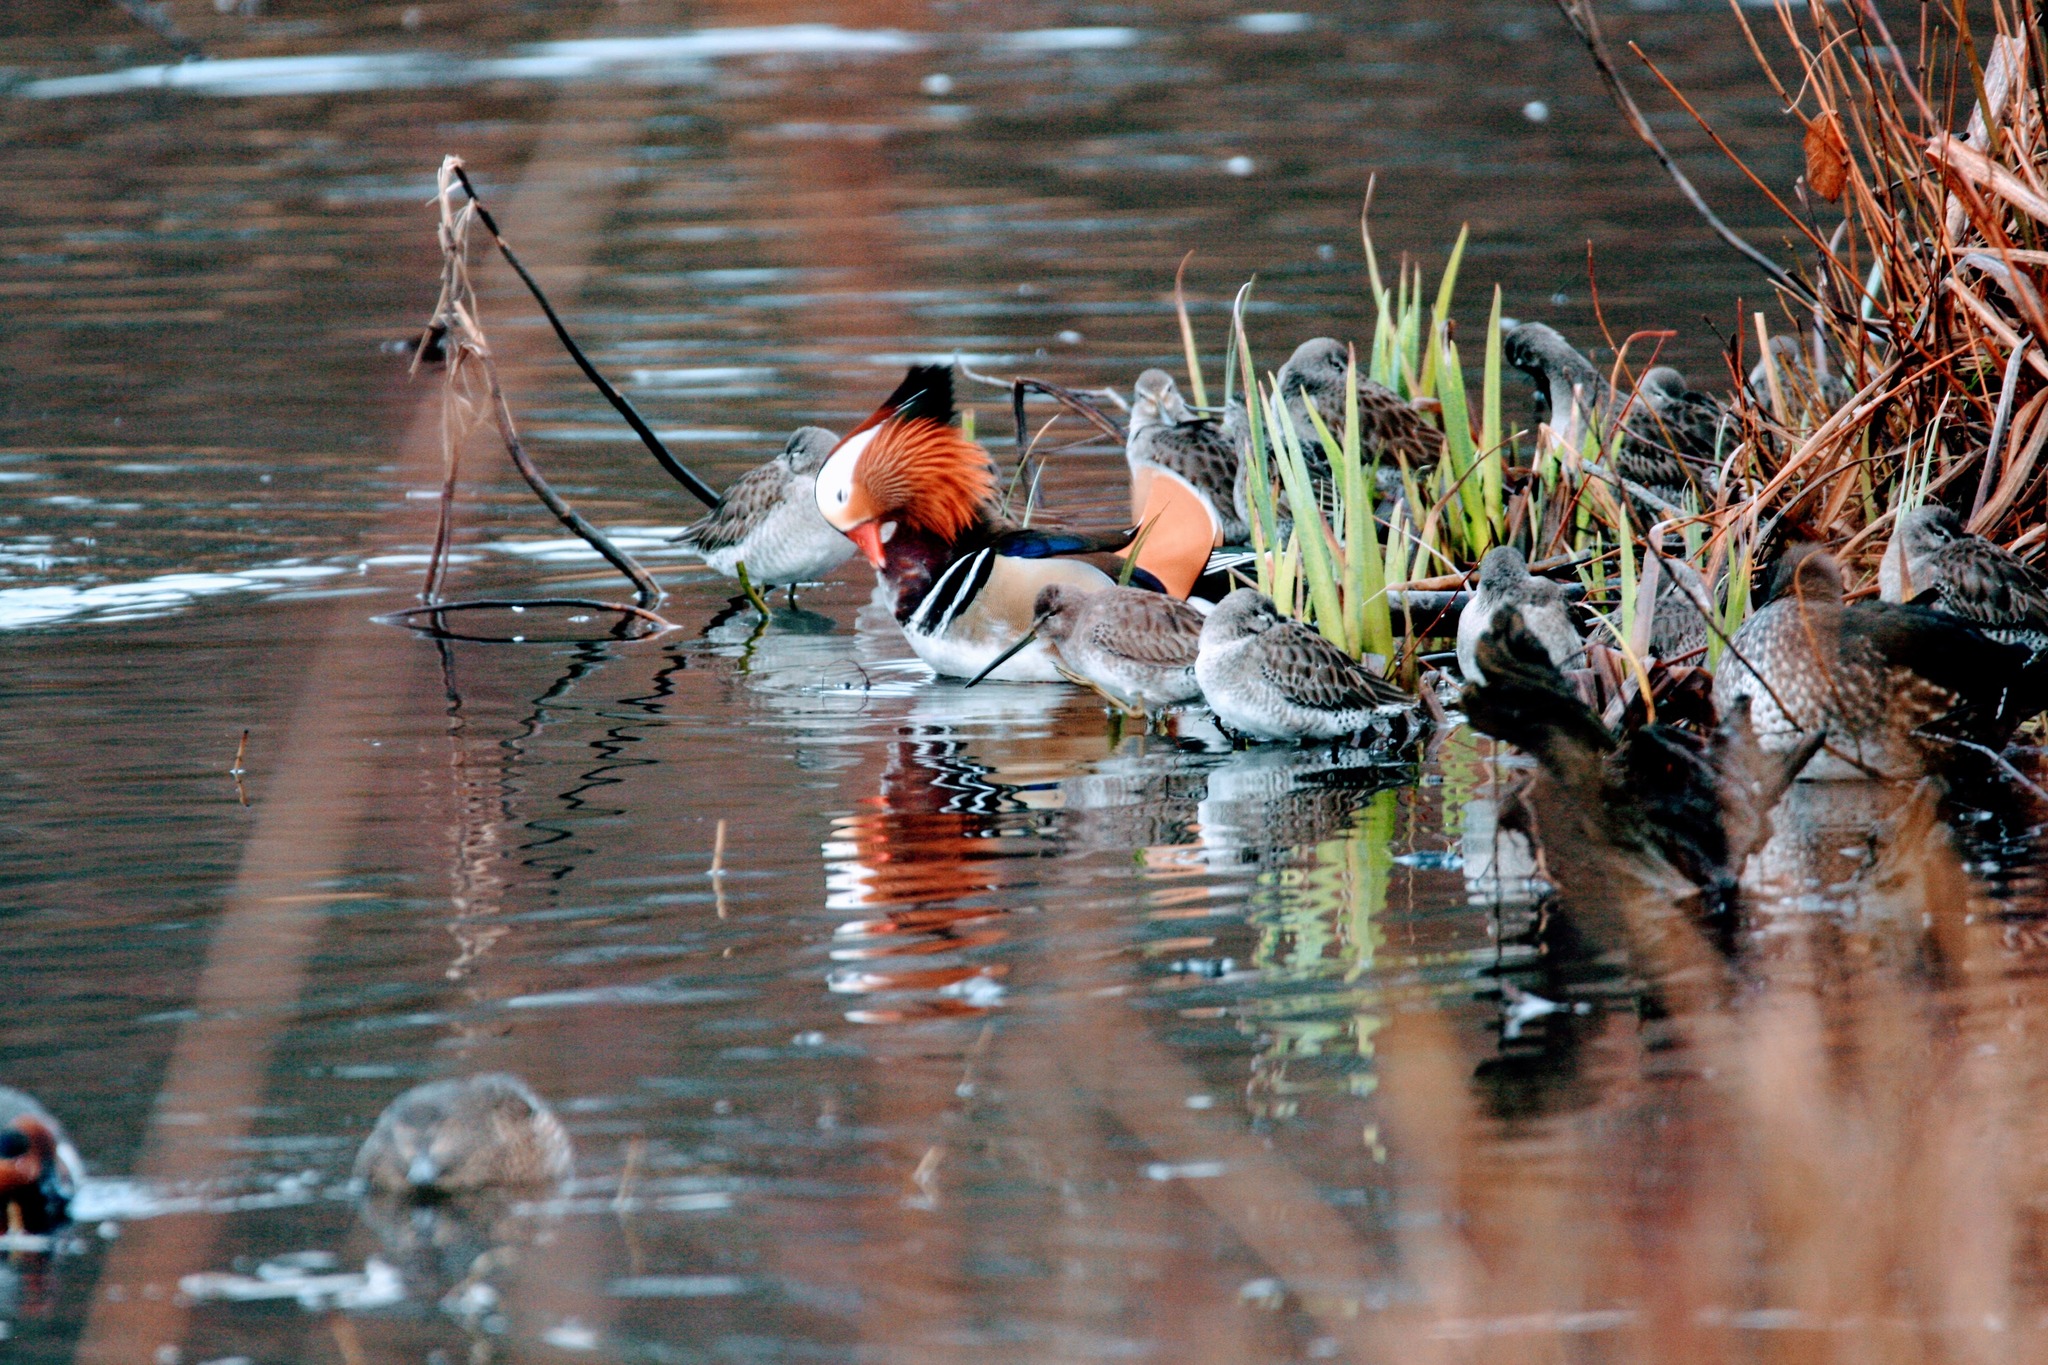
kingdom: Animalia
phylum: Chordata
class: Aves
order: Anseriformes
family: Anatidae
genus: Aix
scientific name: Aix galericulata
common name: Mandarin duck
